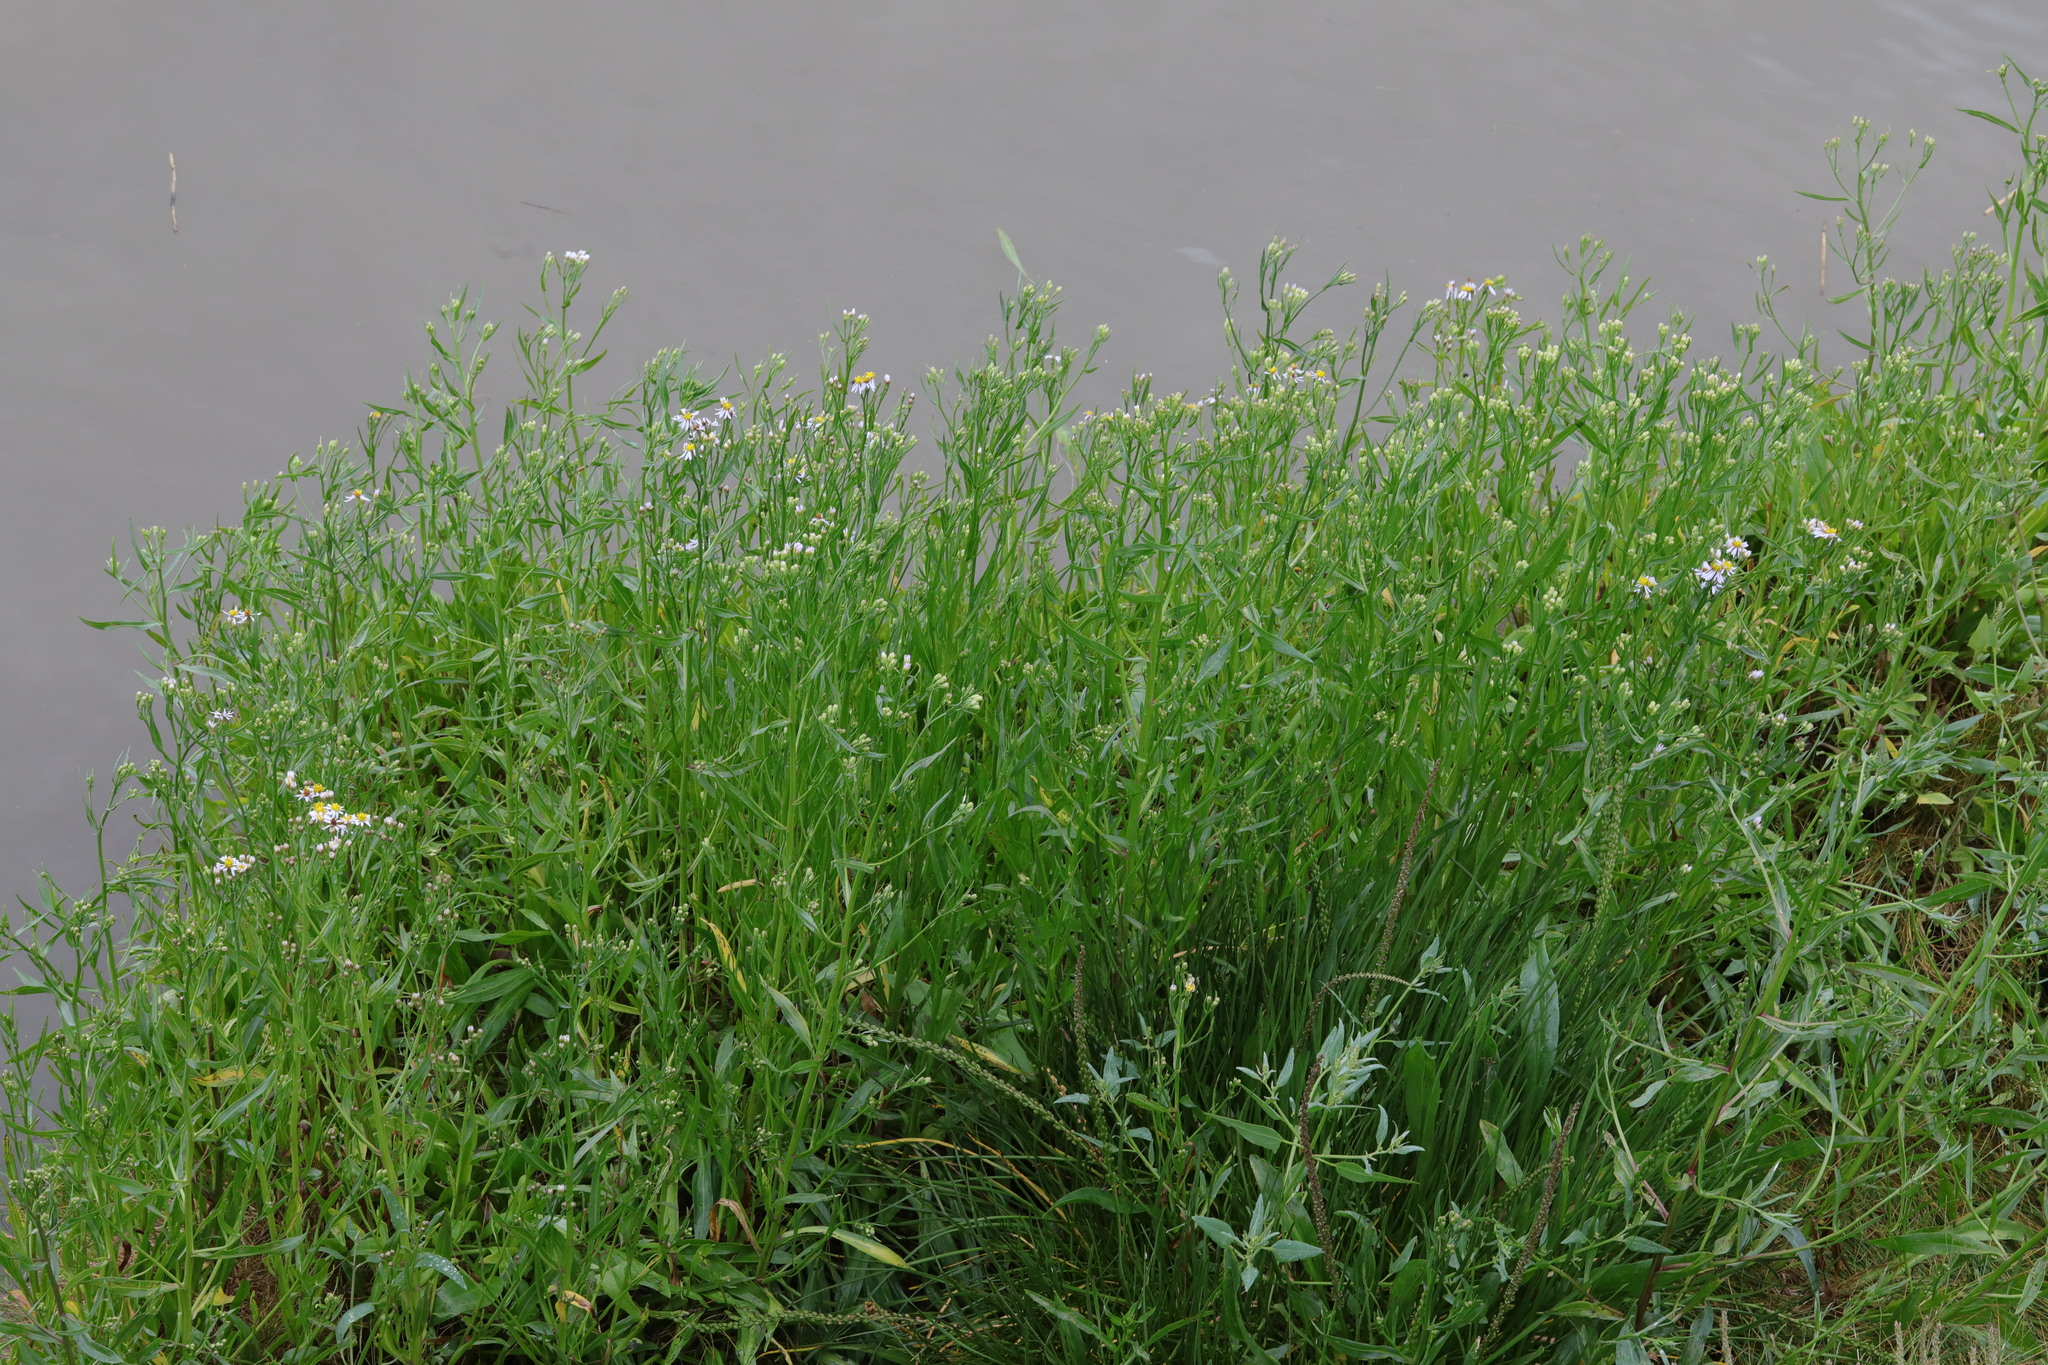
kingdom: Plantae
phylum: Tracheophyta
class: Magnoliopsida
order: Asterales
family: Asteraceae
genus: Tripolium
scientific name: Tripolium pannonicum
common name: Sea aster
